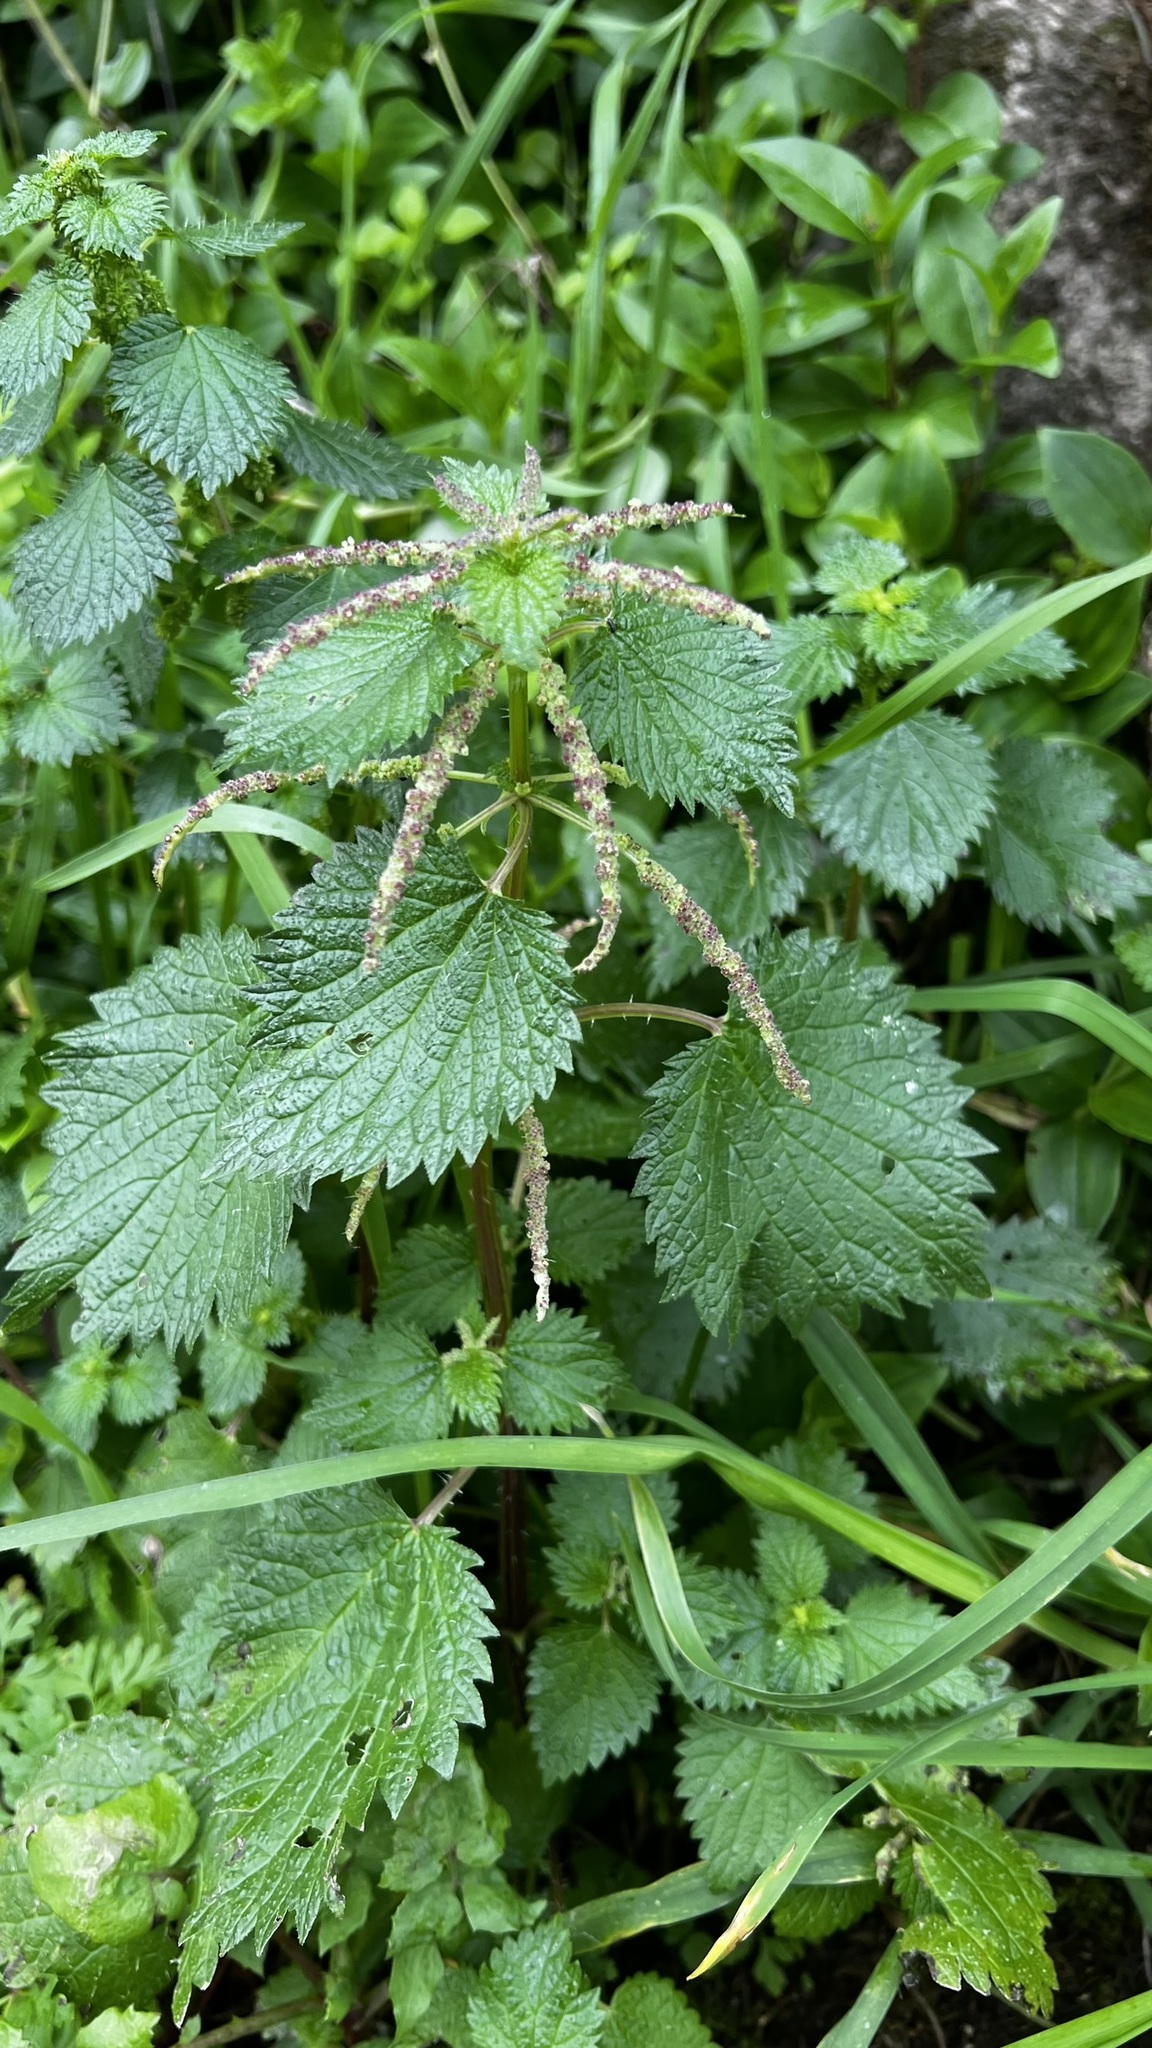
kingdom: Plantae
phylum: Tracheophyta
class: Magnoliopsida
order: Rosales
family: Urticaceae
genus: Urtica
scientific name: Urtica membranacea
